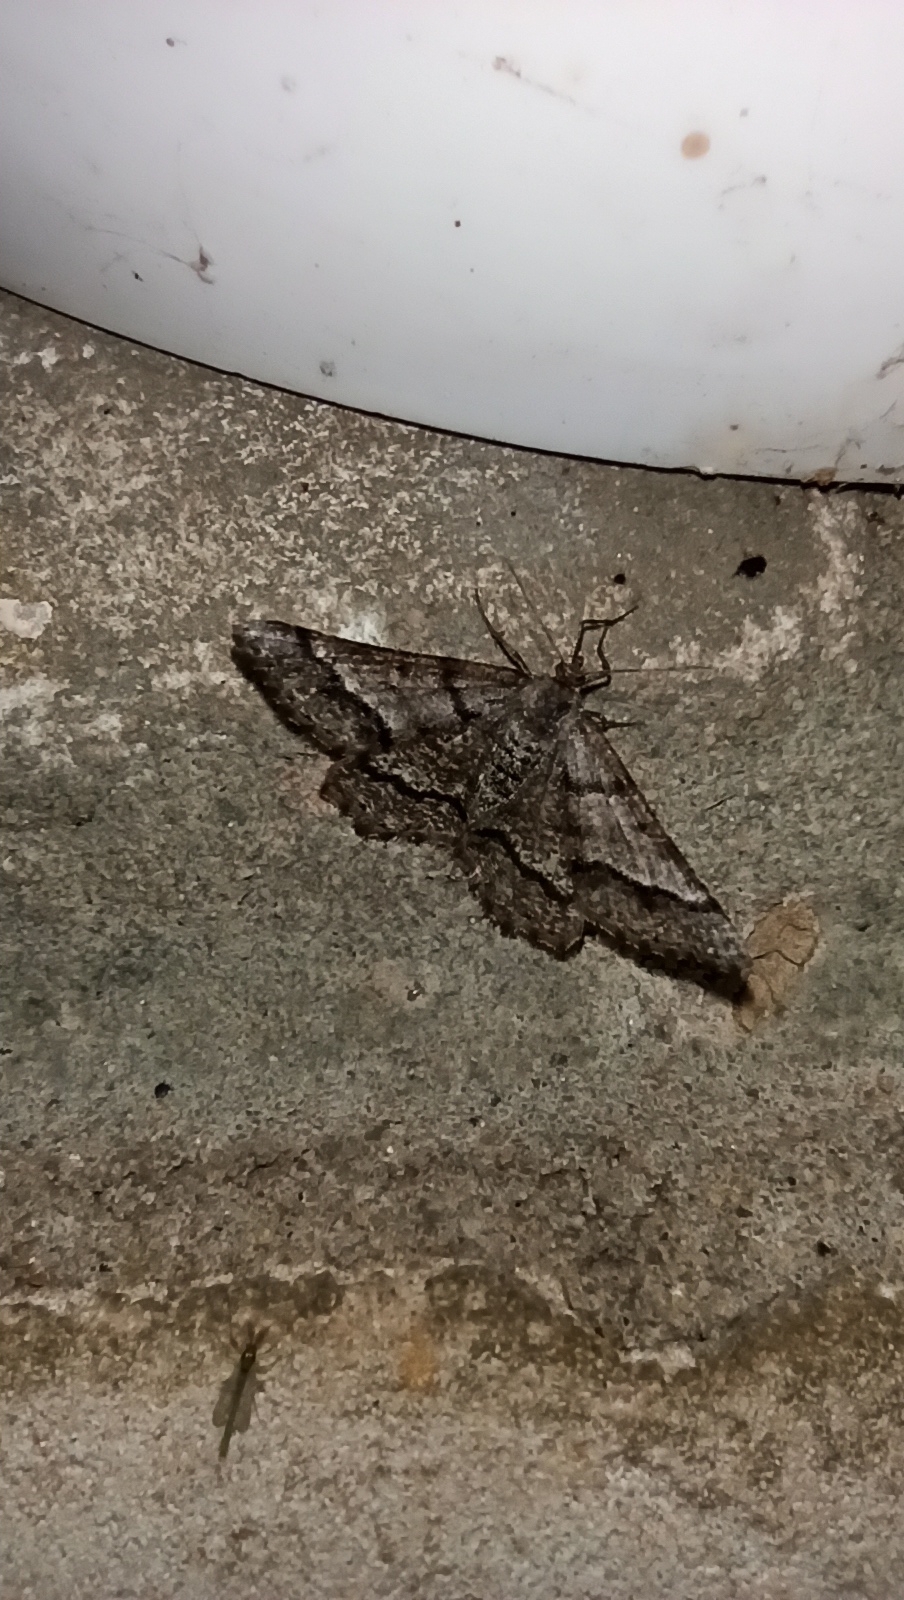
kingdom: Animalia
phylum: Arthropoda
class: Insecta
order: Lepidoptera
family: Geometridae
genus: Tephrina
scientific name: Tephrina murinaria
